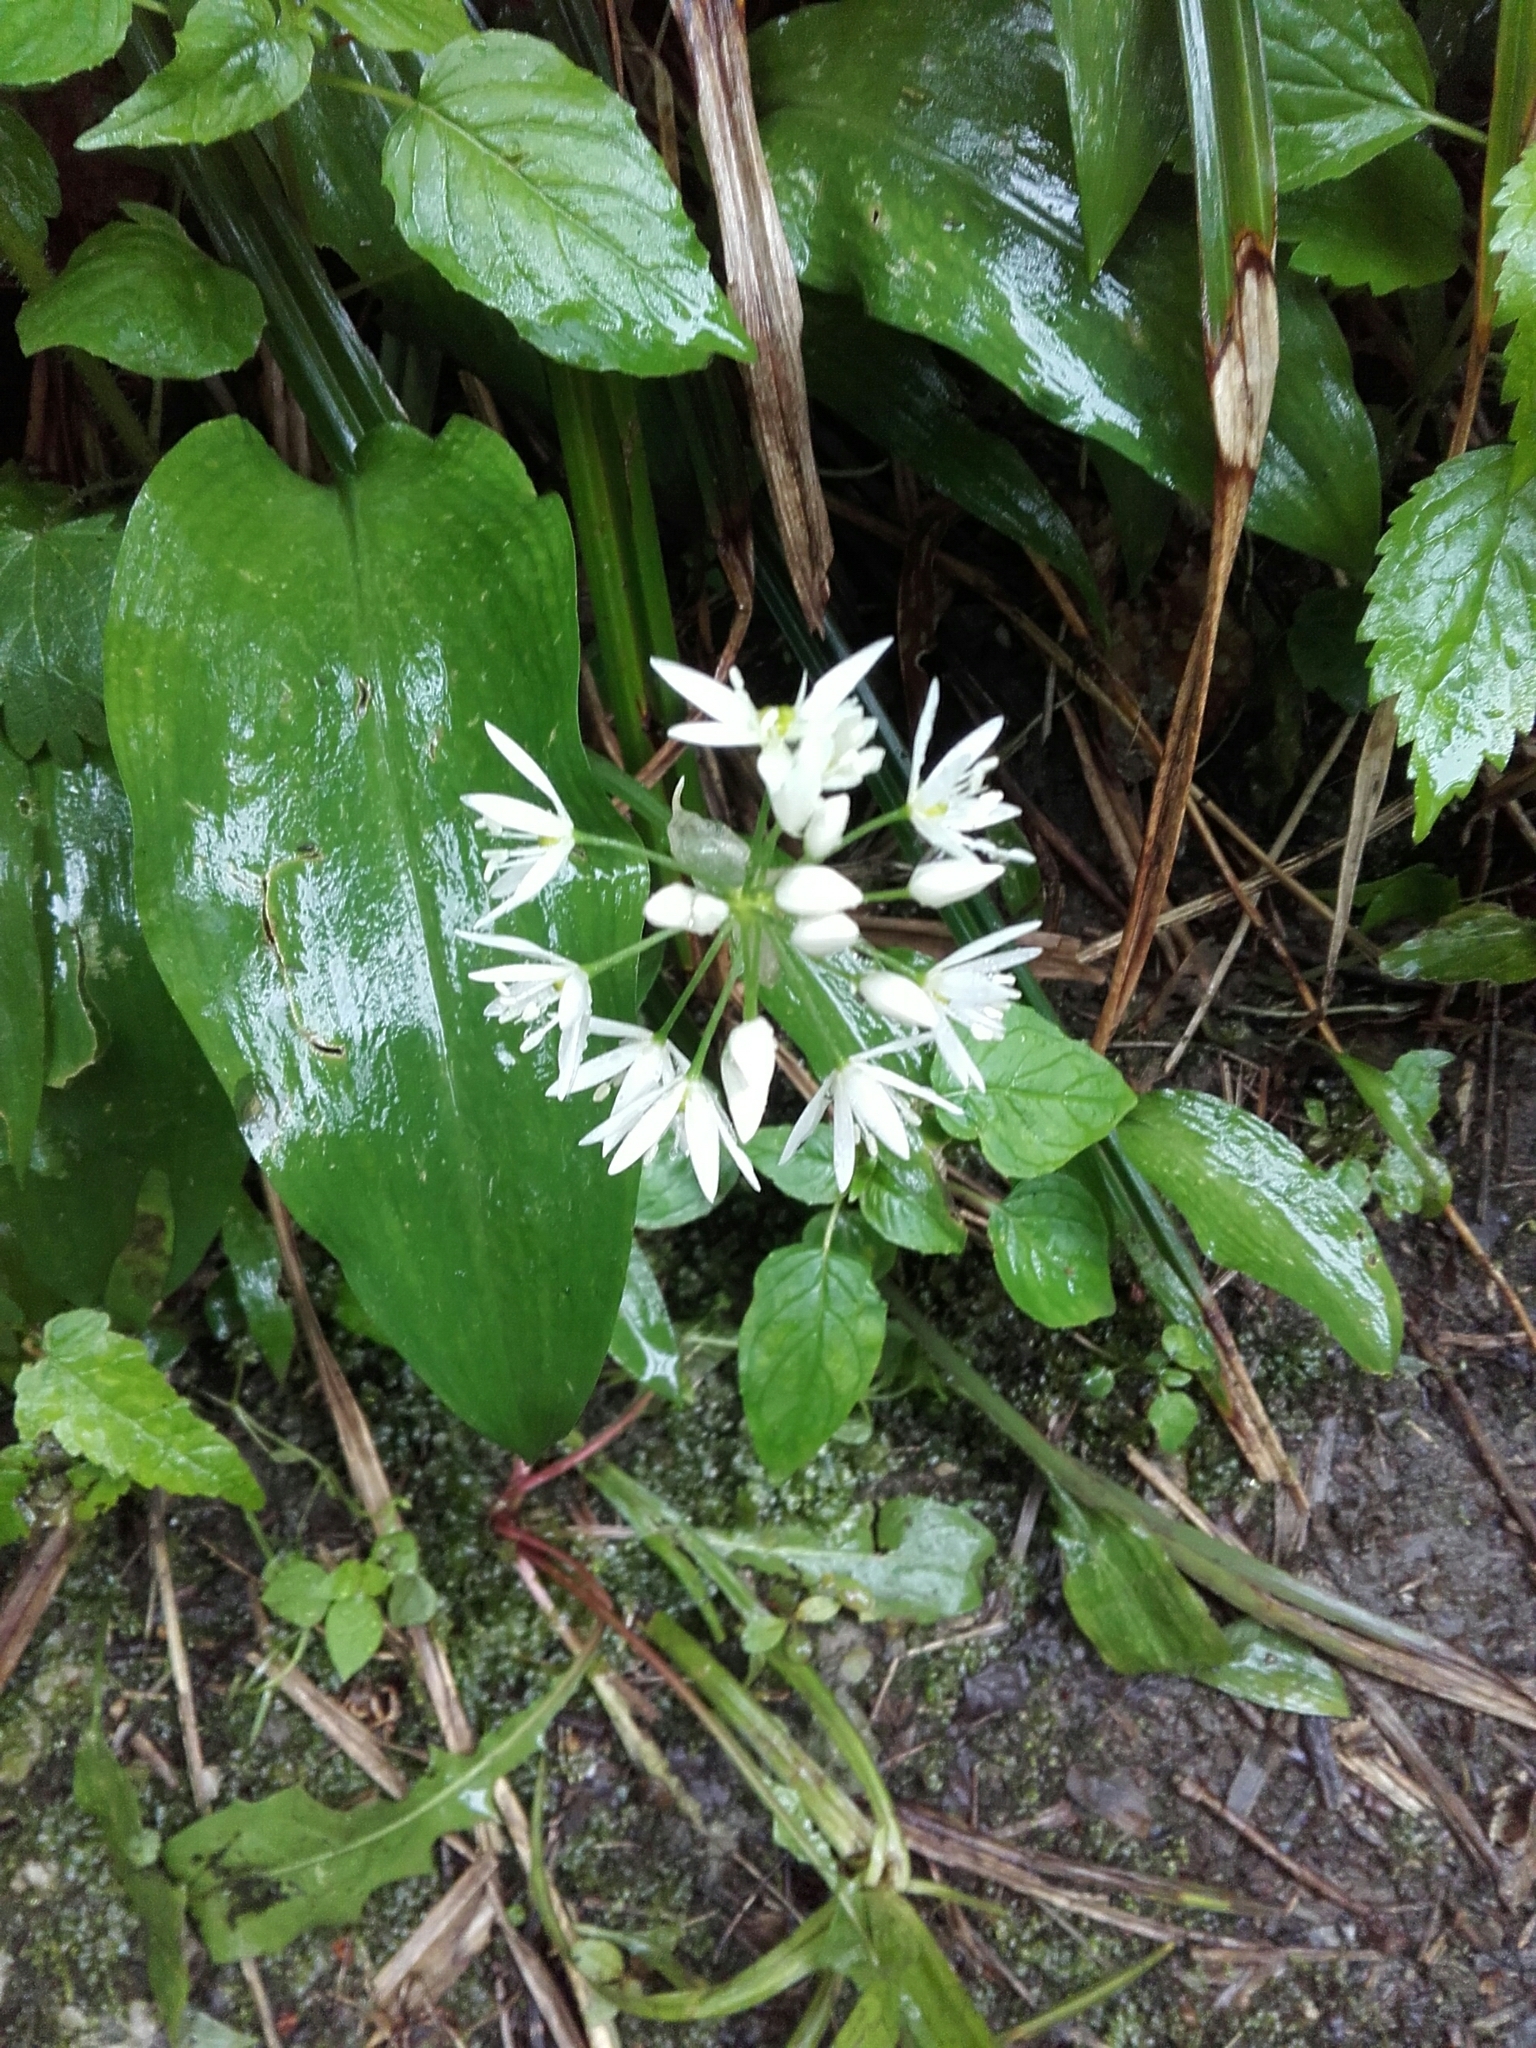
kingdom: Plantae
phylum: Tracheophyta
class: Liliopsida
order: Asparagales
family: Amaryllidaceae
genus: Allium
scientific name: Allium ursinum
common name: Ramsons
